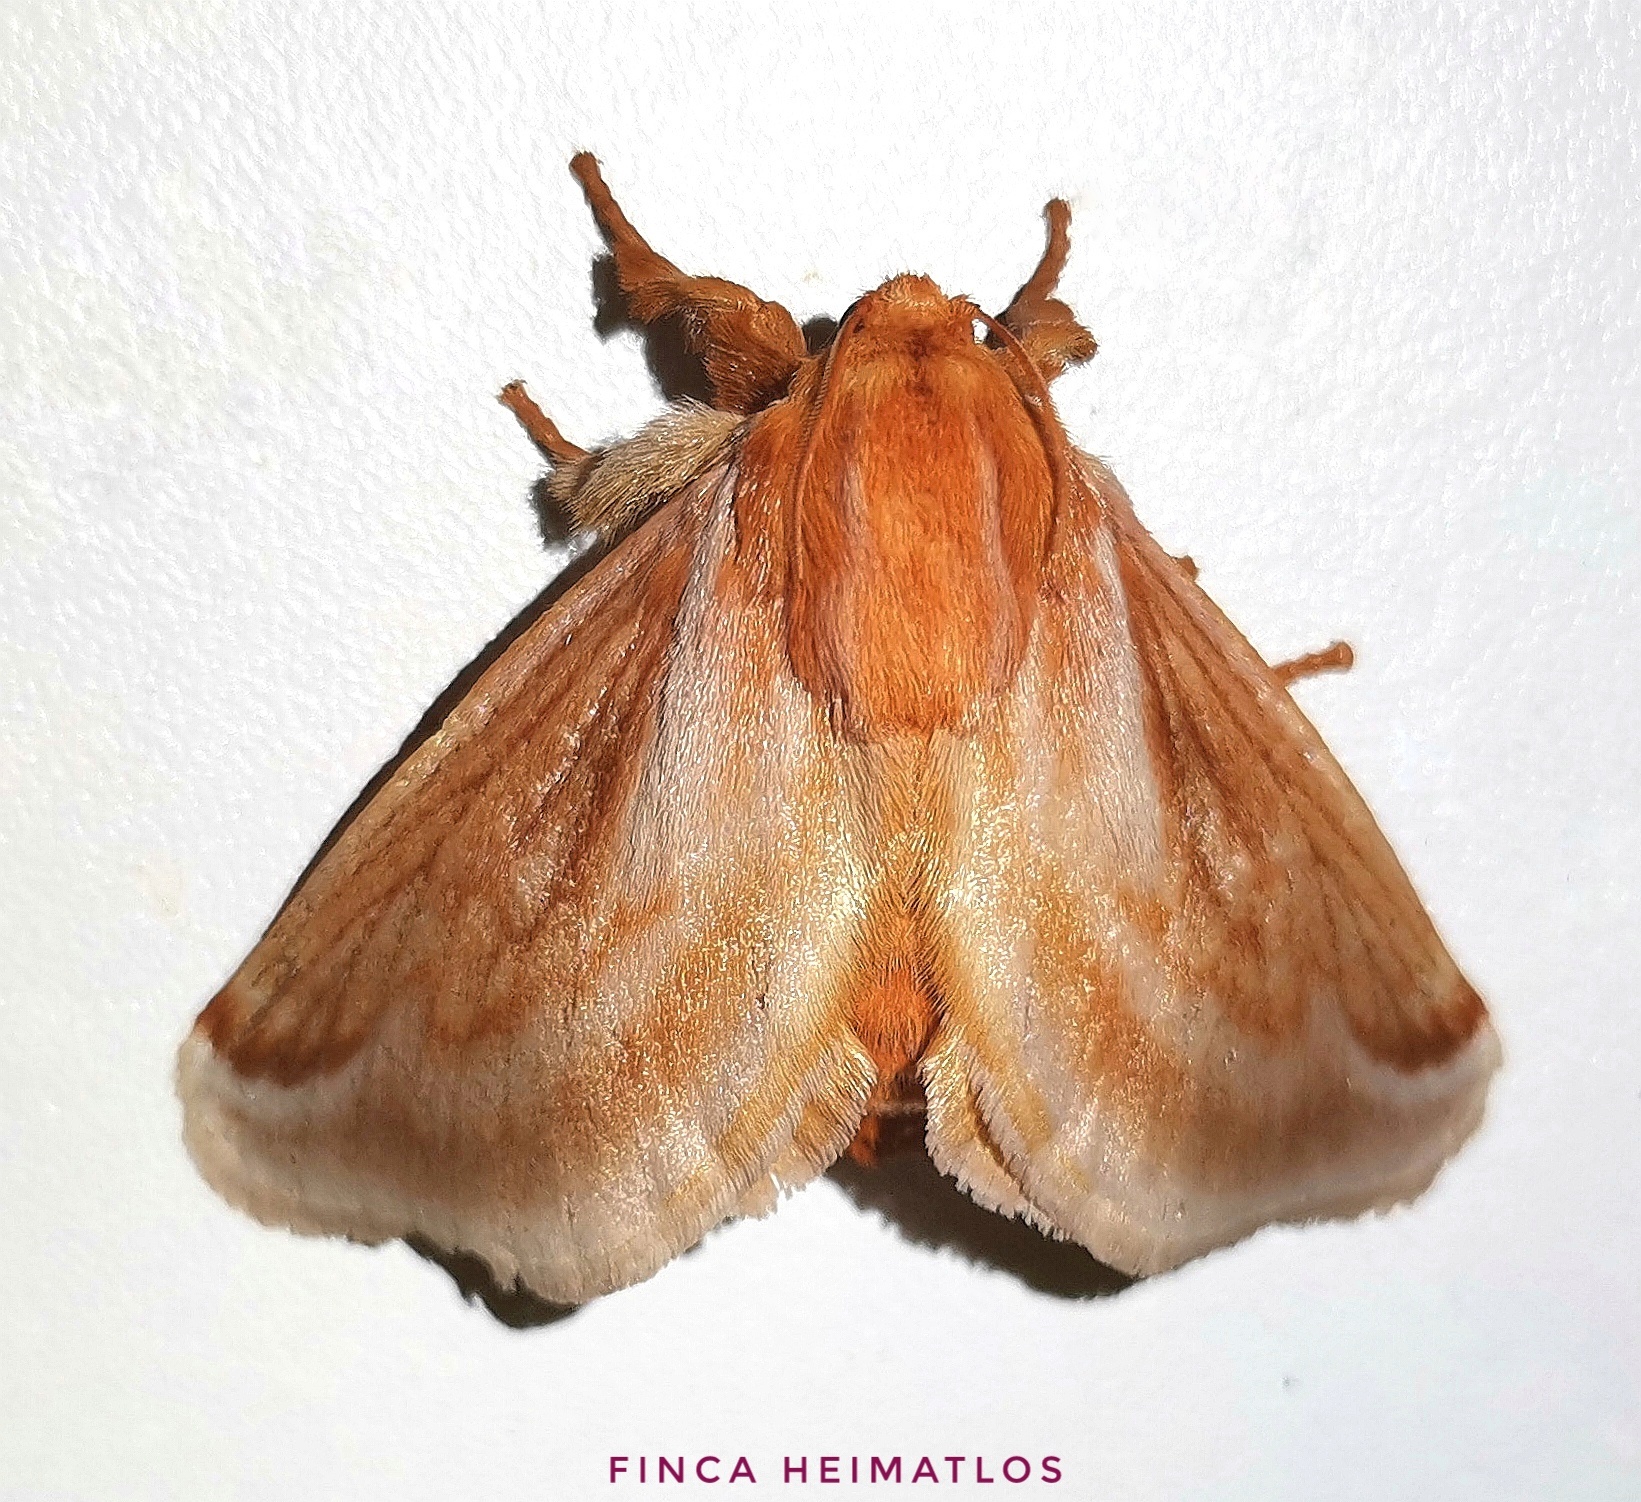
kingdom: Animalia
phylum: Arthropoda
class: Insecta
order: Lepidoptera
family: Limacodidae
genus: Perola
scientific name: Perola villosipes
